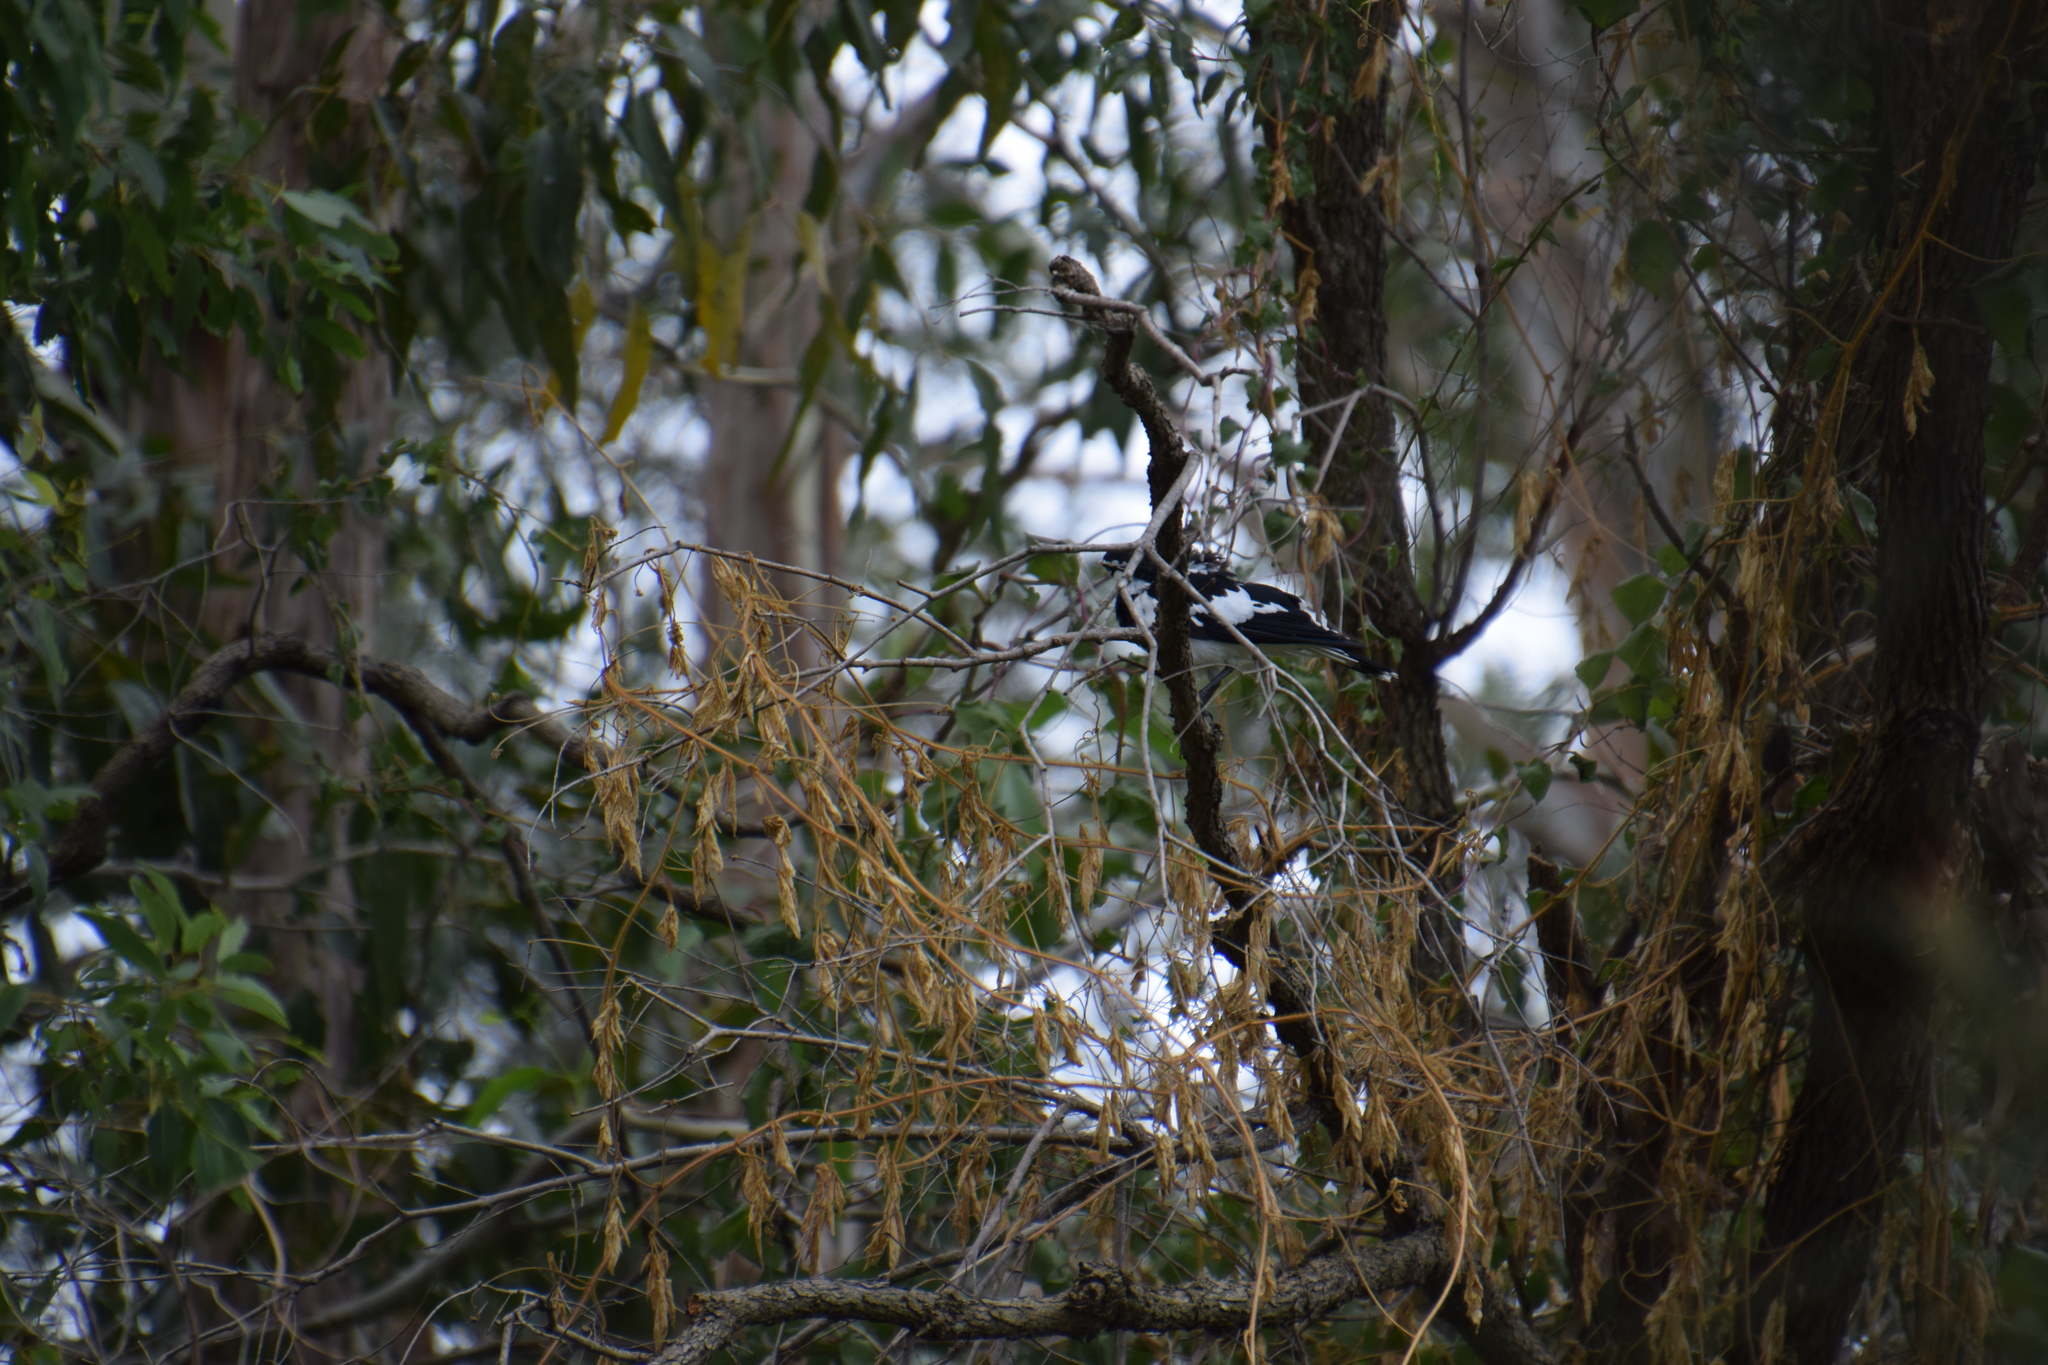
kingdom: Animalia
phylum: Chordata
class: Aves
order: Passeriformes
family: Monarchidae
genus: Grallina
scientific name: Grallina cyanoleuca
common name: Magpie-lark
